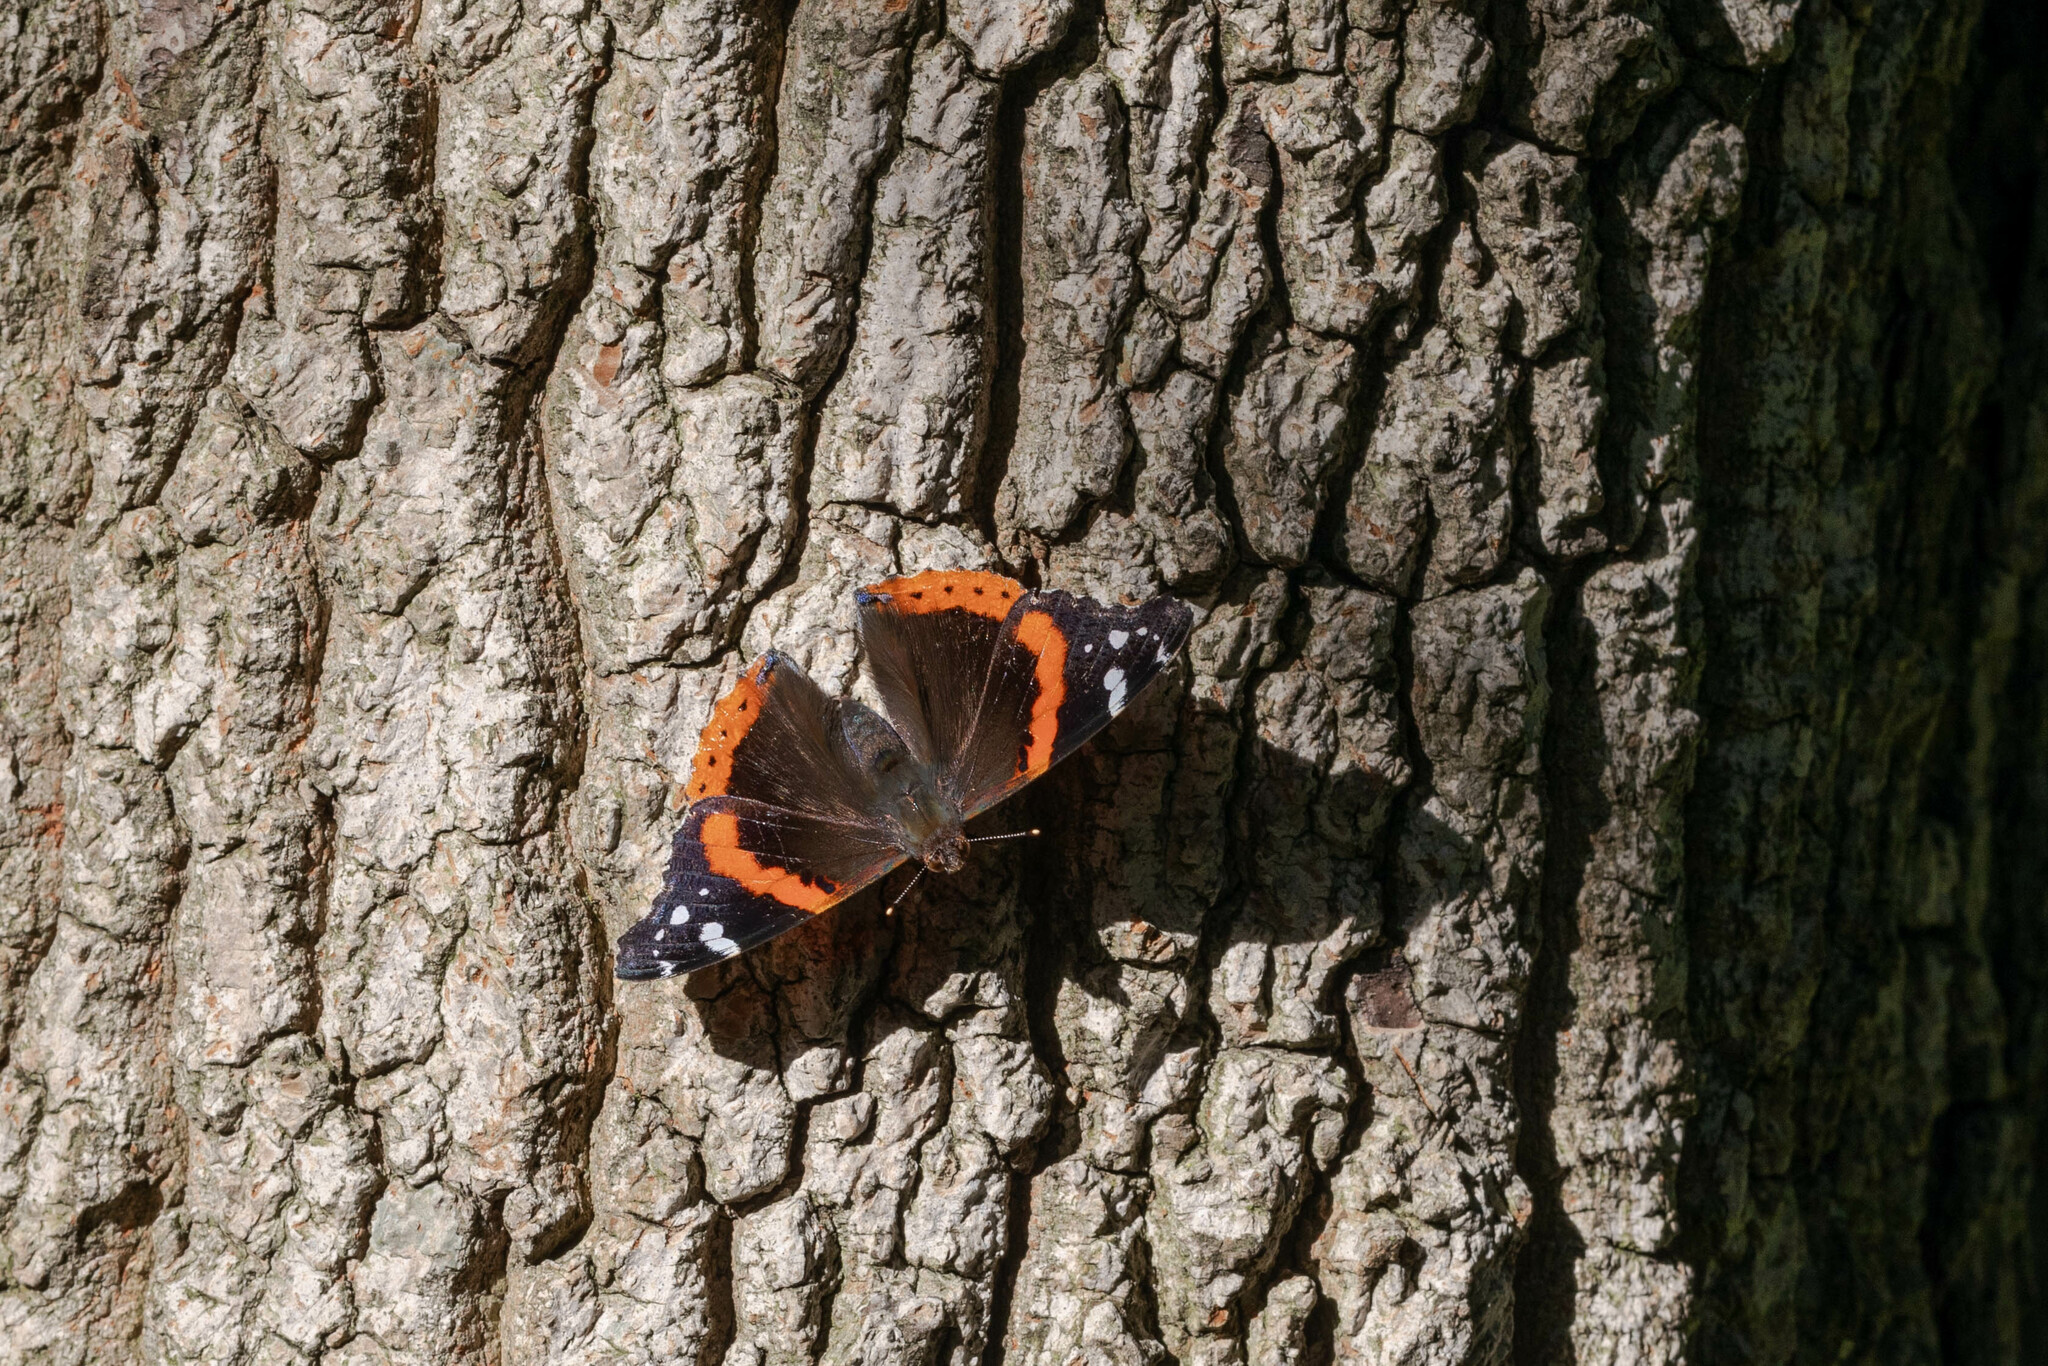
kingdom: Animalia
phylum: Arthropoda
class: Insecta
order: Lepidoptera
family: Nymphalidae
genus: Vanessa
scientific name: Vanessa atalanta
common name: Red admiral
